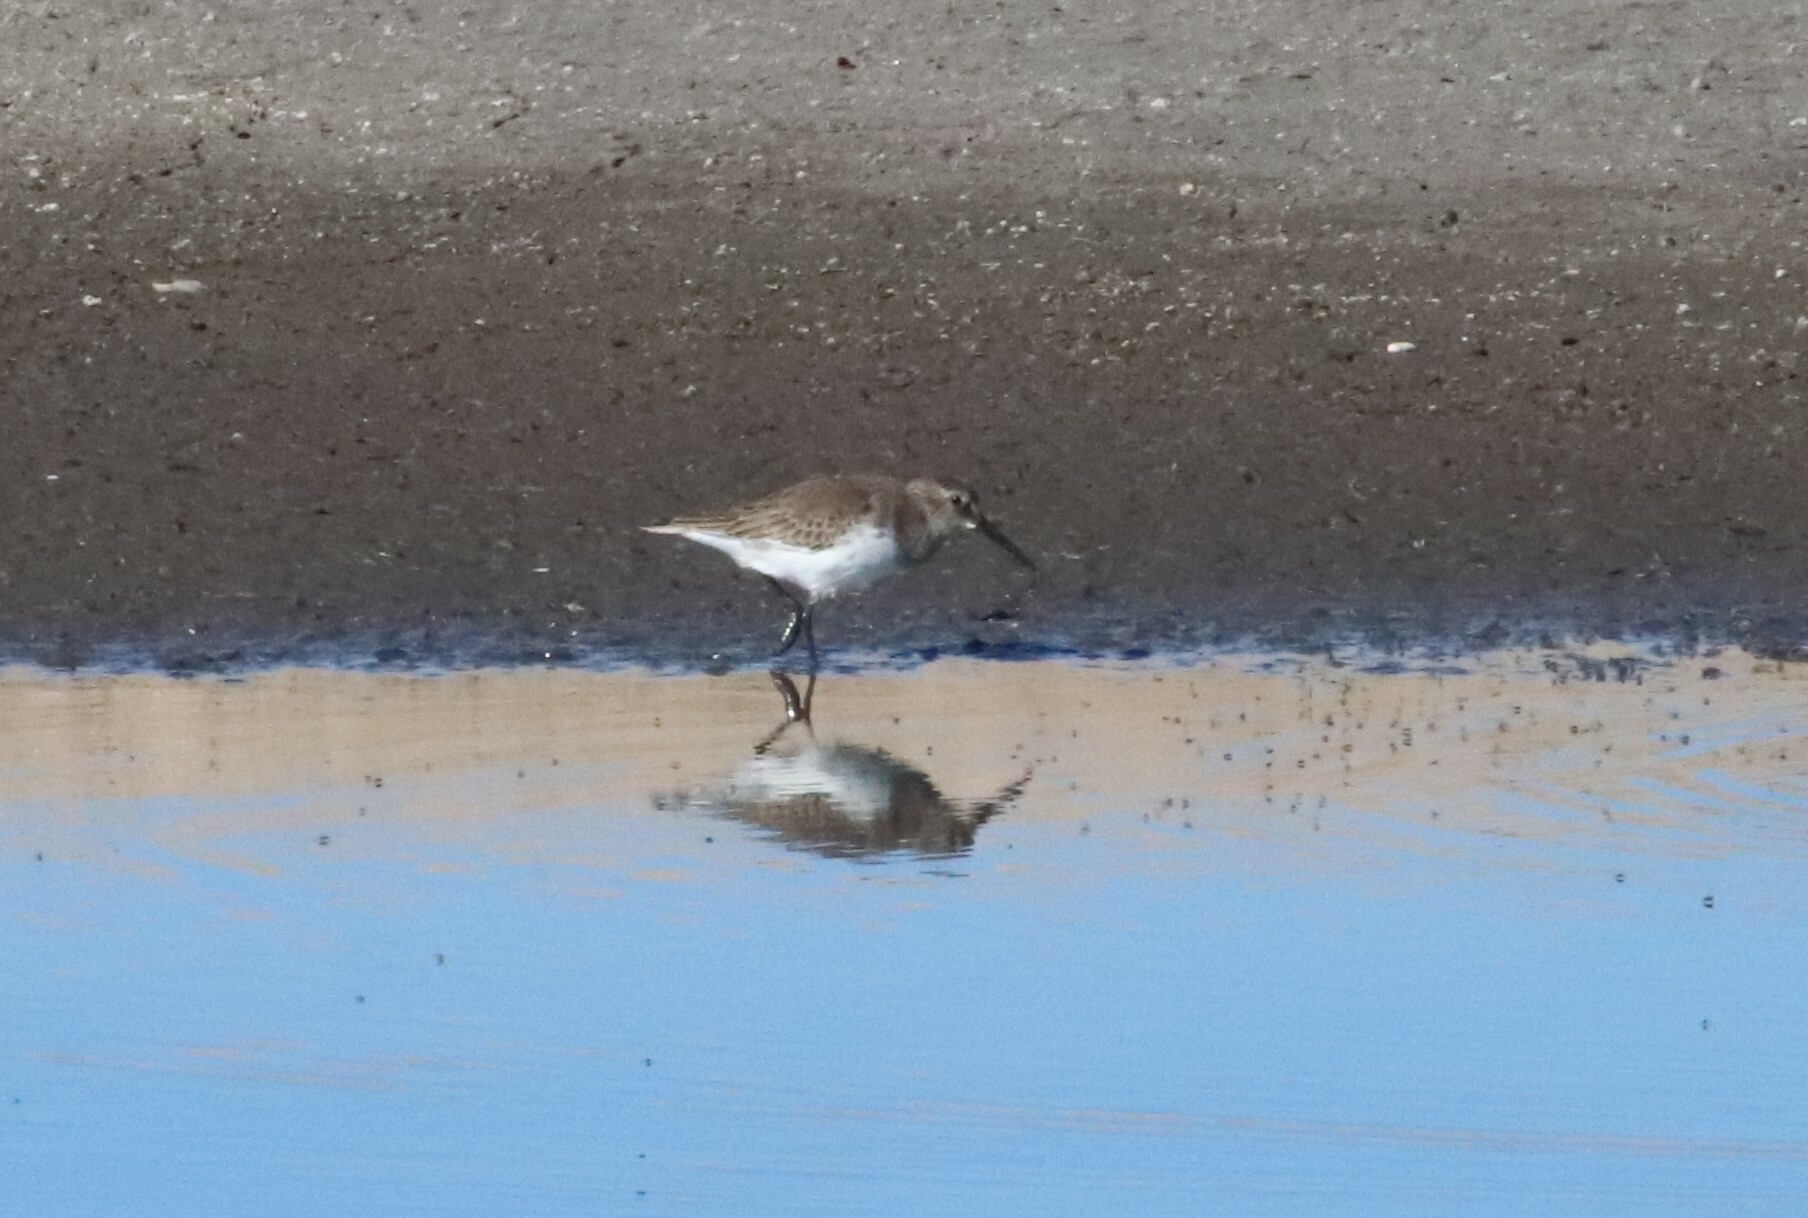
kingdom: Animalia
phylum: Chordata
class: Aves
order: Charadriiformes
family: Scolopacidae
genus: Calidris
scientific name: Calidris alpina
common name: Dunlin
